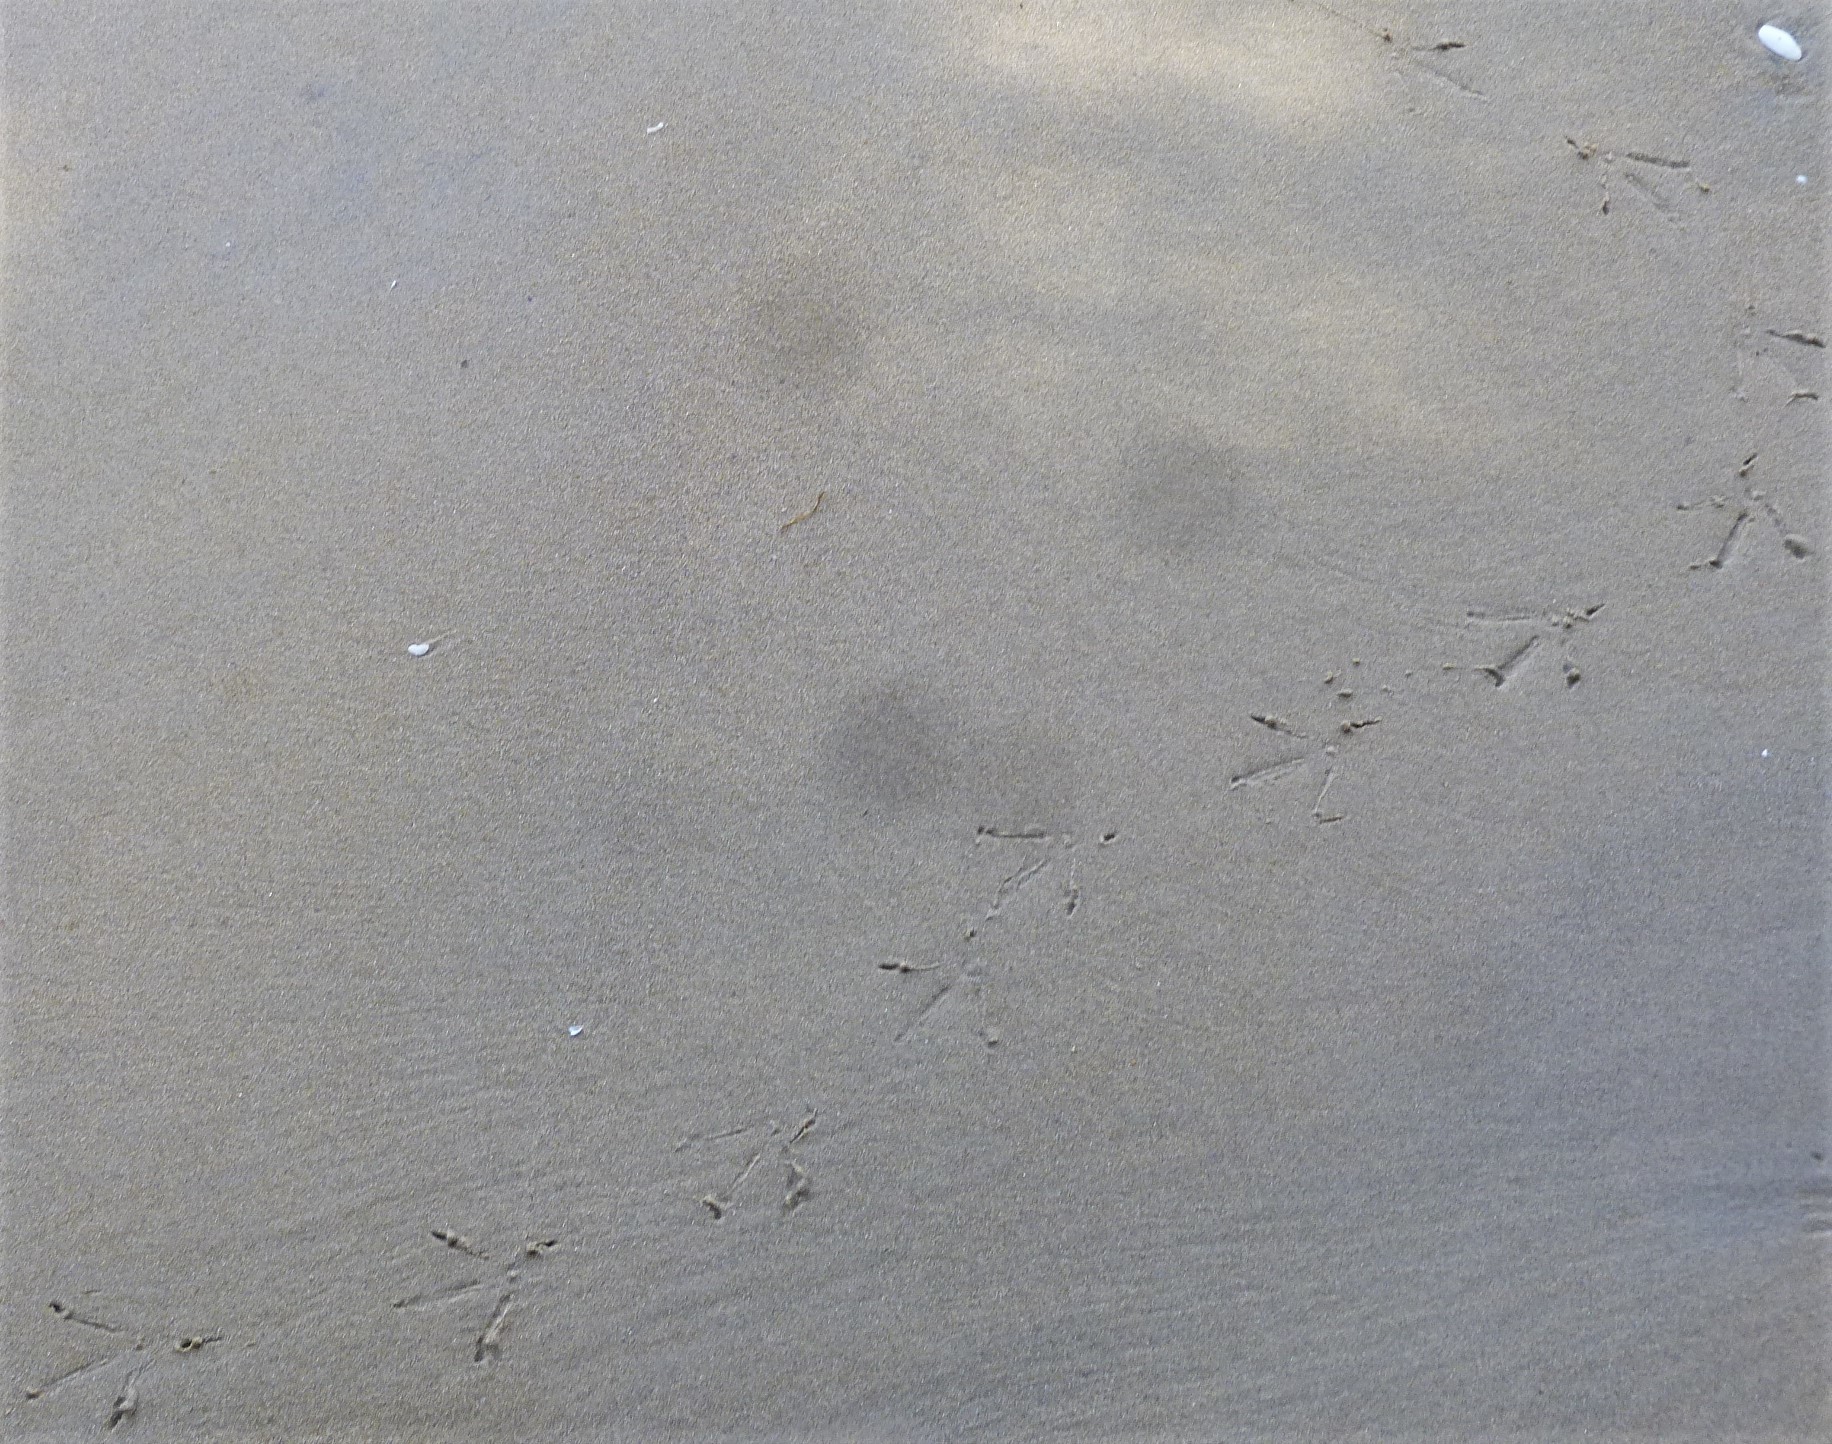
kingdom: Animalia
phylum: Chordata
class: Aves
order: Gruiformes
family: Rallidae
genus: Gallirallus
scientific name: Gallirallus australis
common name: Weka
